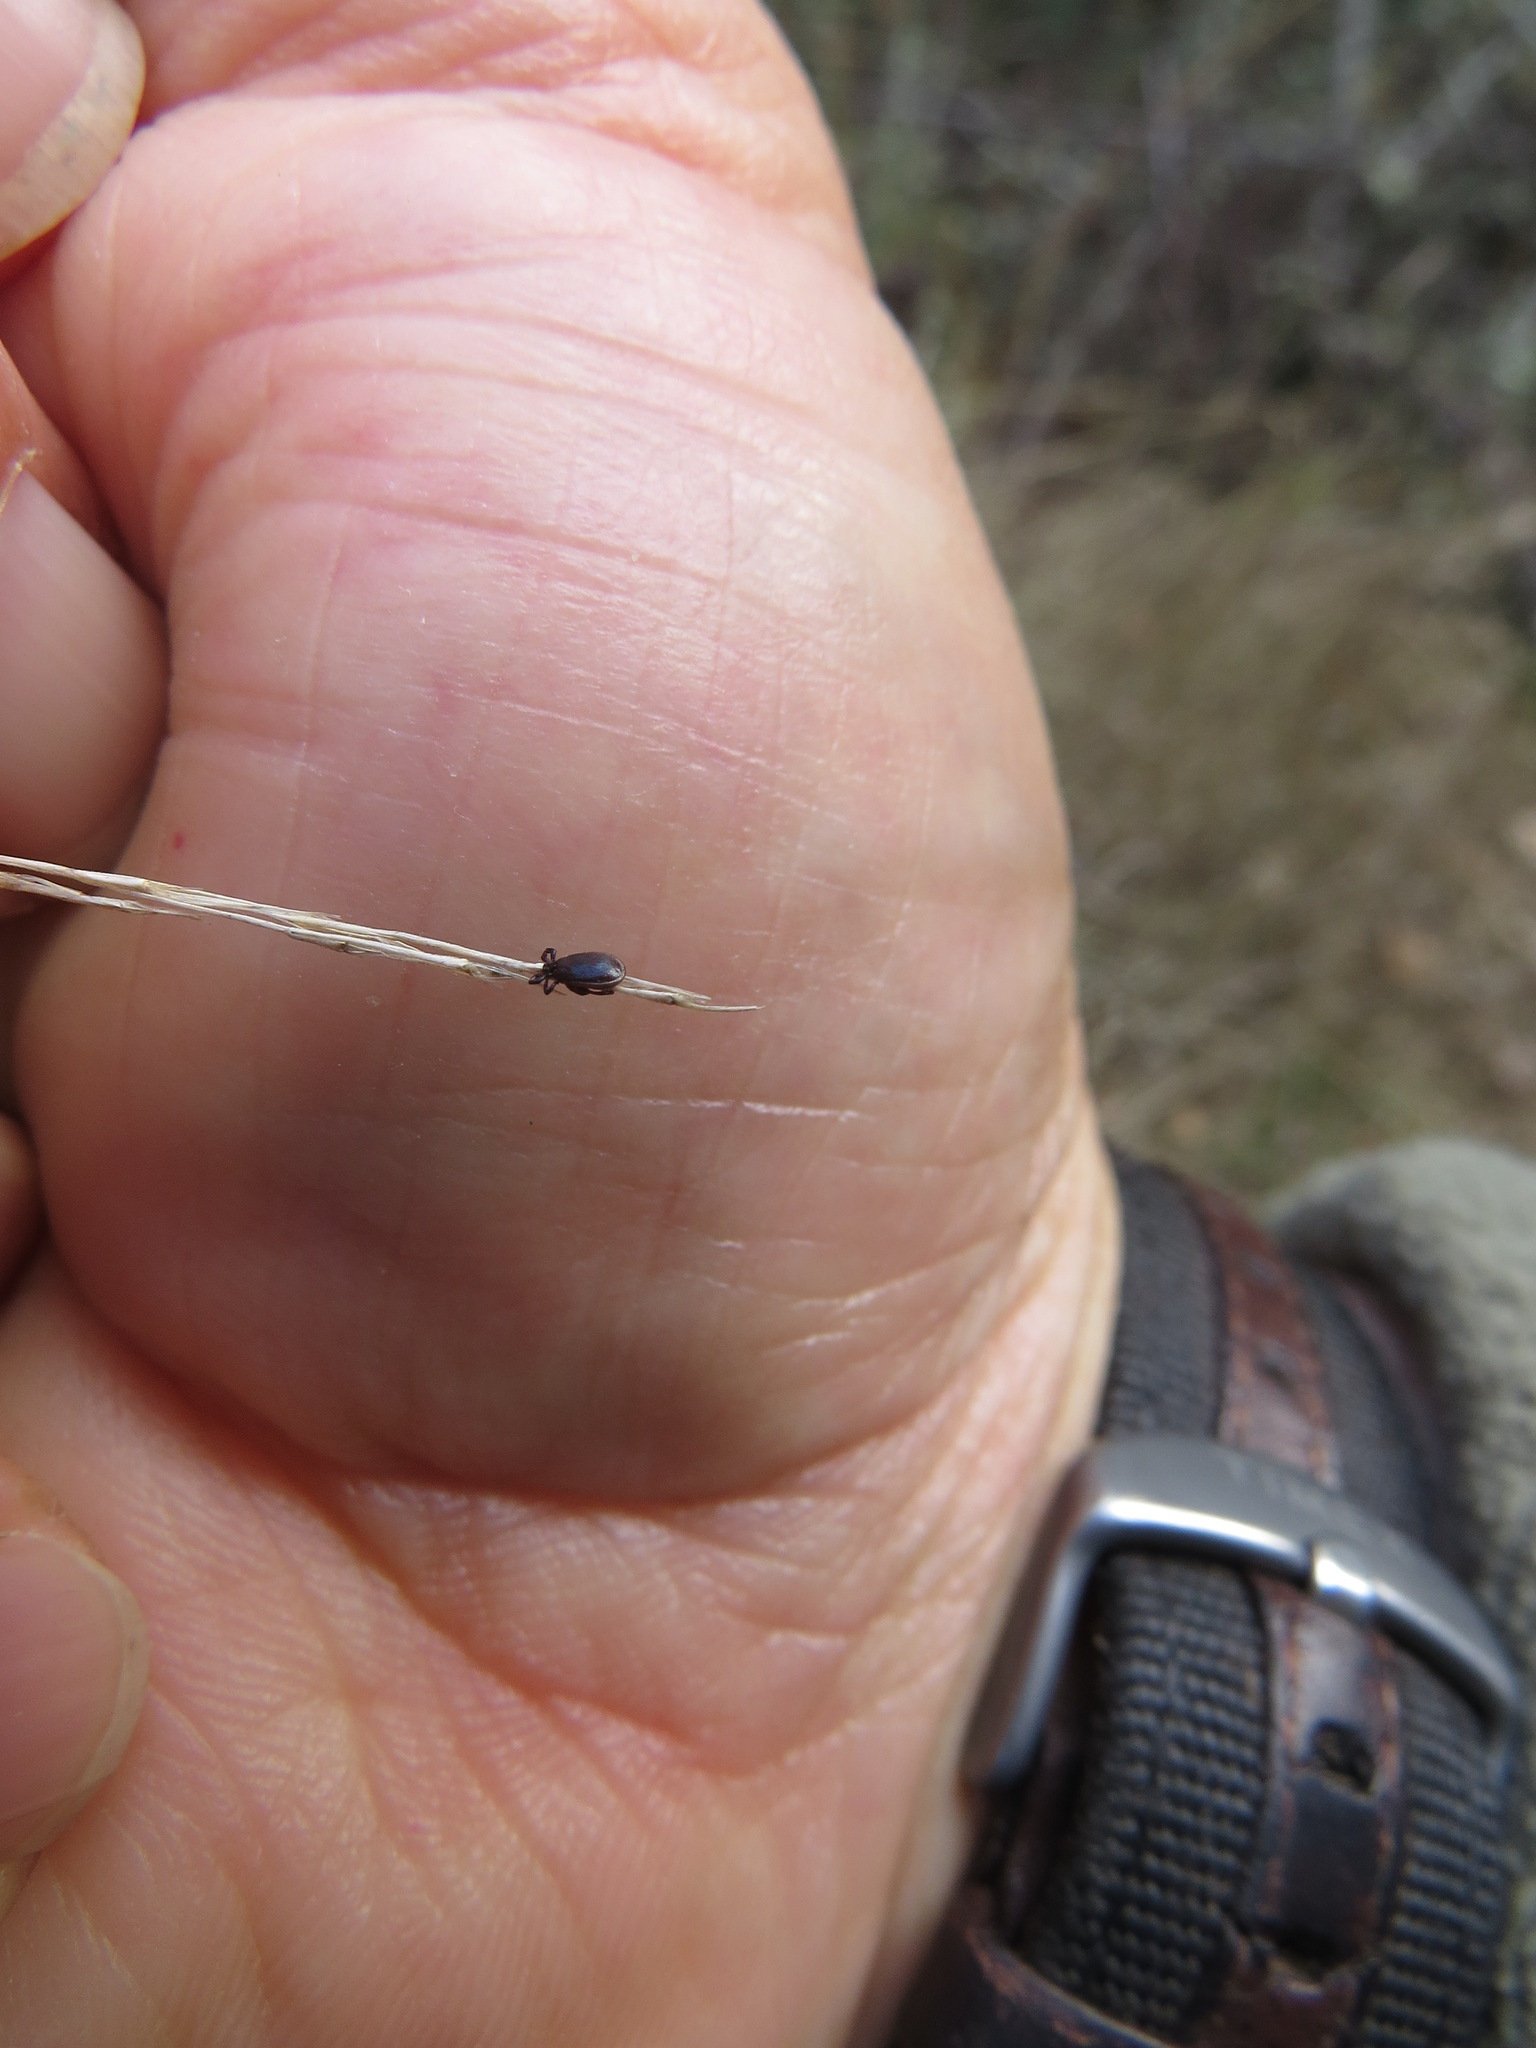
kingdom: Animalia
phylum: Arthropoda
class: Arachnida
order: Ixodida
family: Ixodidae
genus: Ixodes
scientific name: Ixodes pacificus
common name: California black-legged tick
